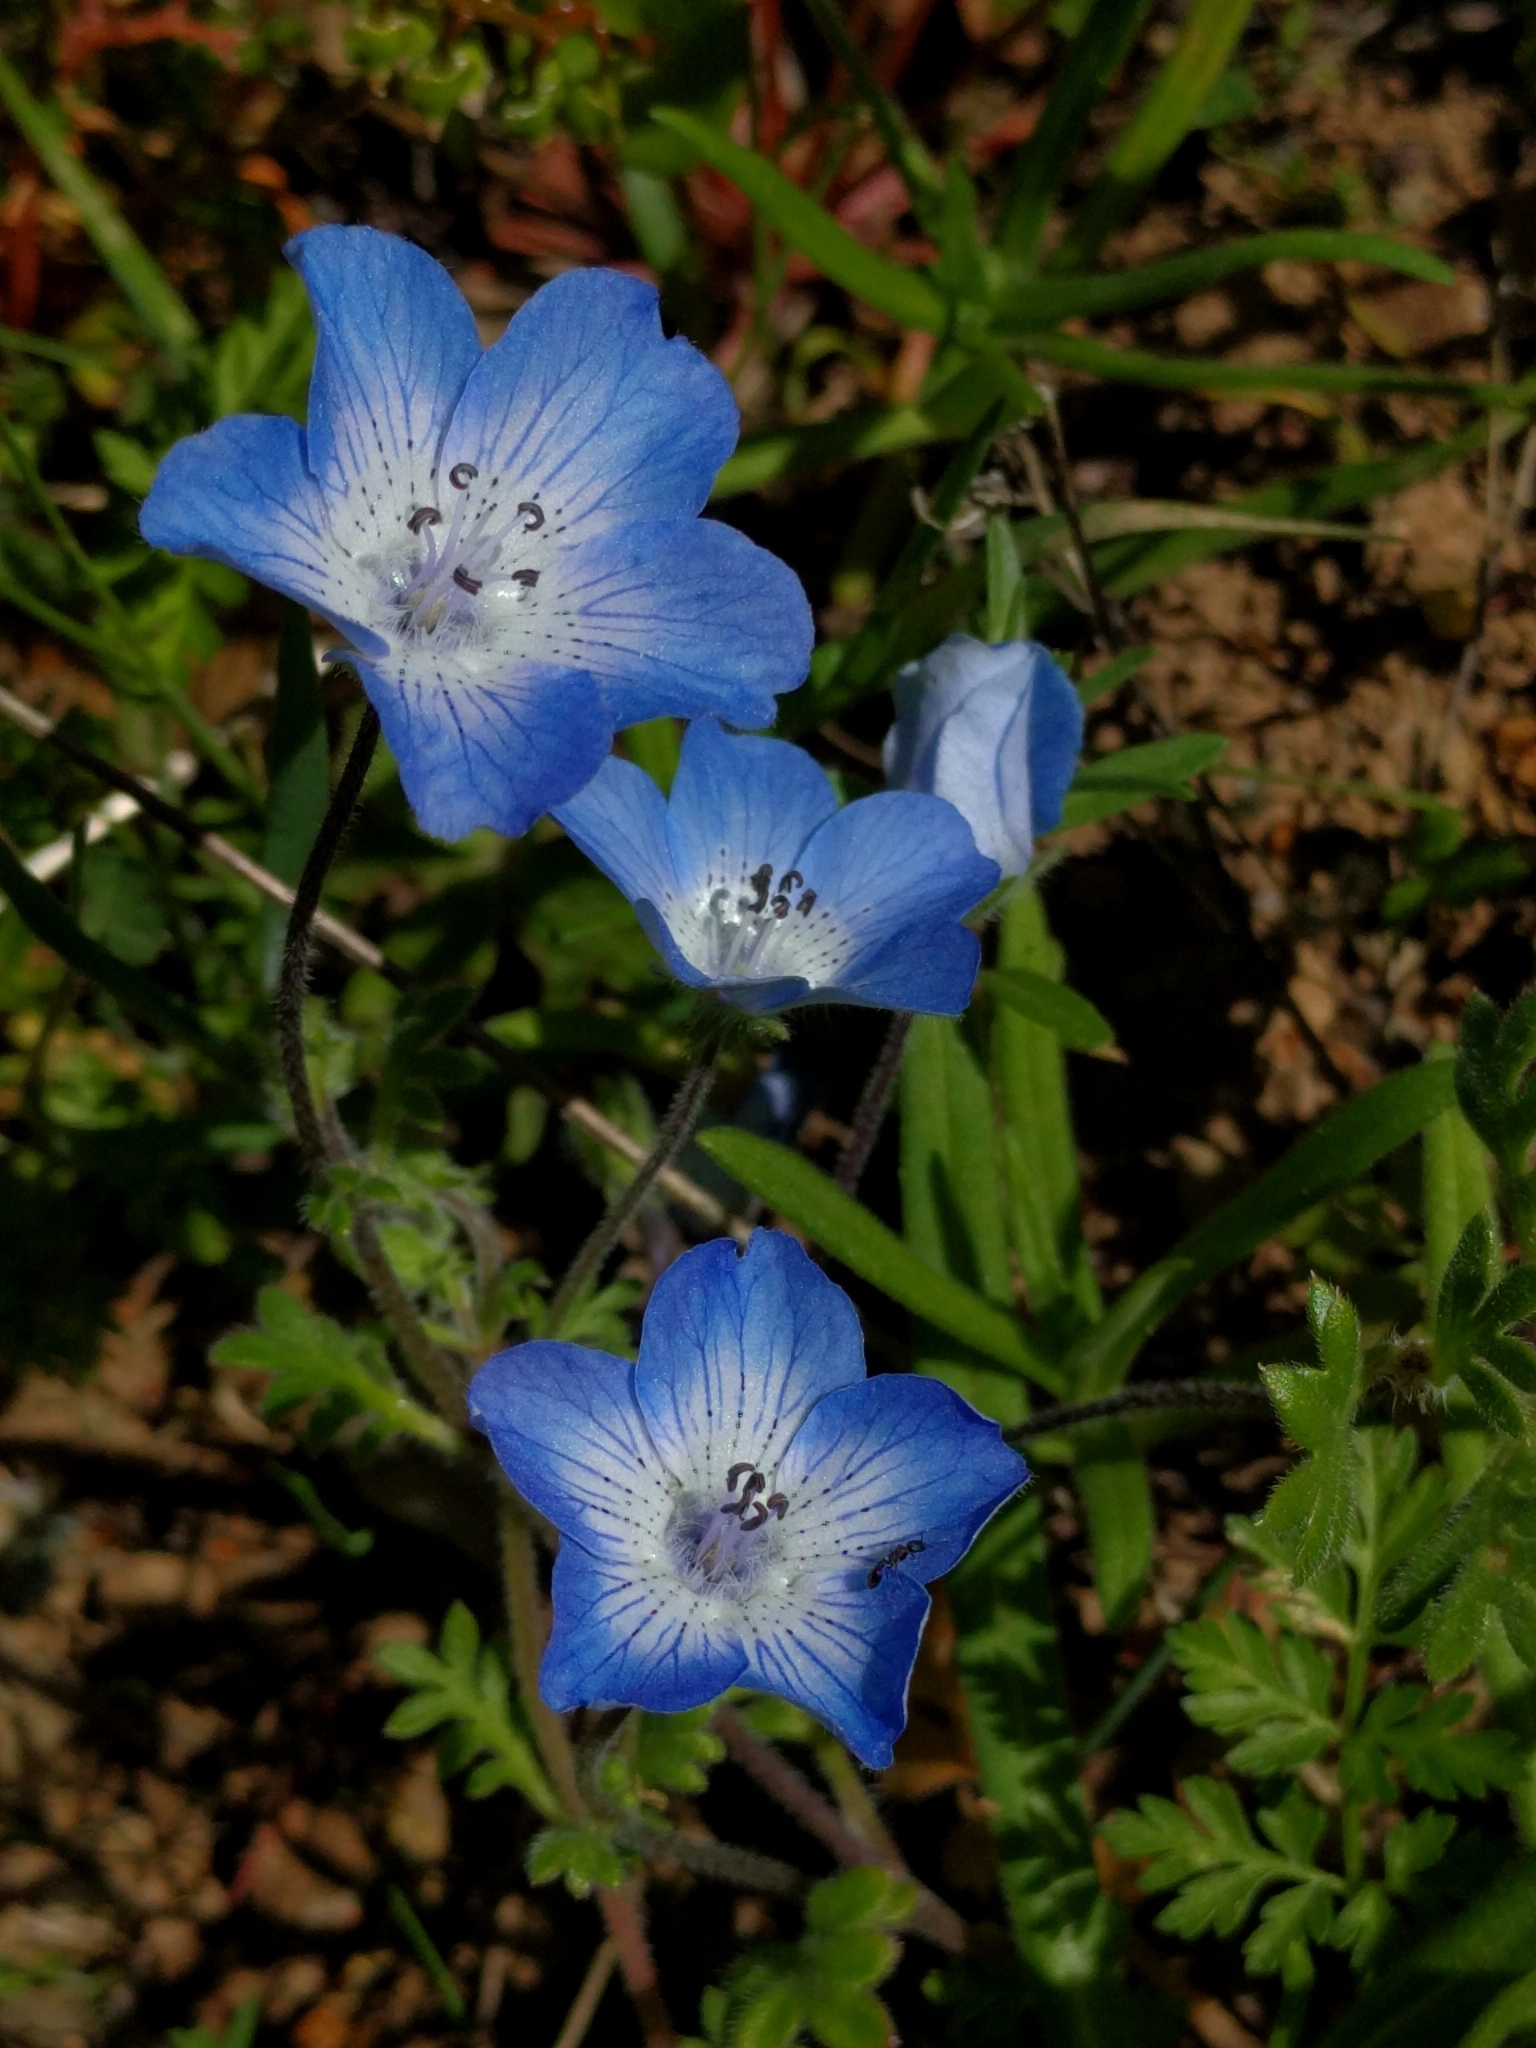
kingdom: Plantae
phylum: Tracheophyta
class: Magnoliopsida
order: Boraginales
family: Hydrophyllaceae
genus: Nemophila
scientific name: Nemophila menziesii
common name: Baby's-blue-eyes
